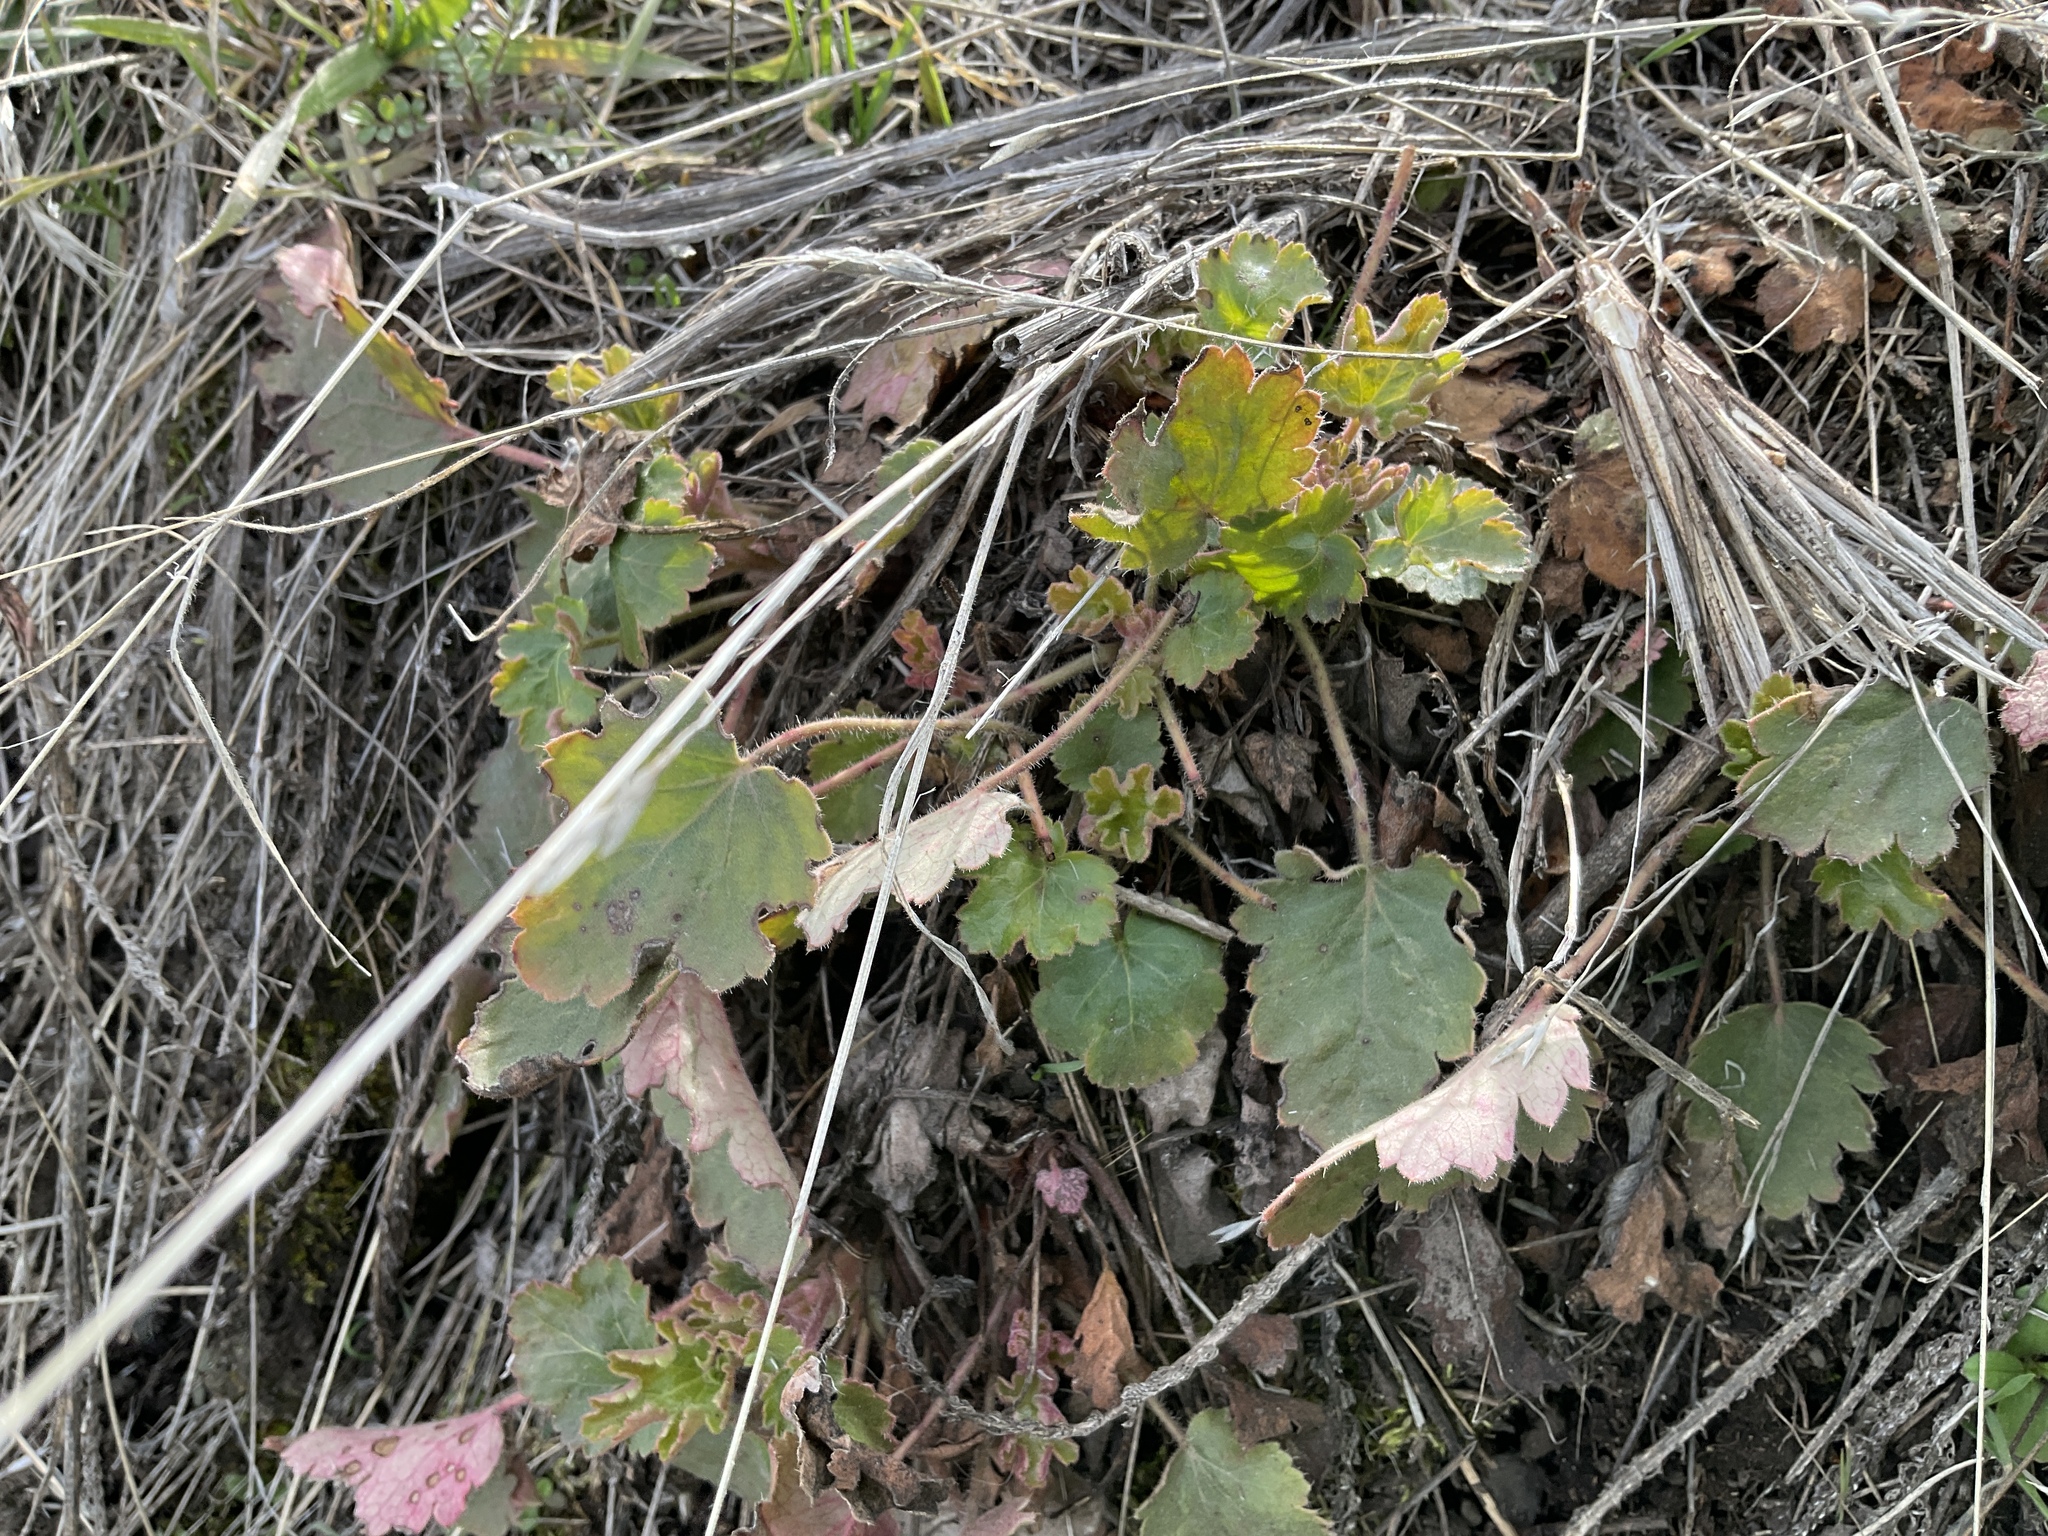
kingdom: Plantae
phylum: Tracheophyta
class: Magnoliopsida
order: Saxifragales
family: Saxifragaceae
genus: Heuchera
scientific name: Heuchera cylindrica
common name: Mat alumroot
